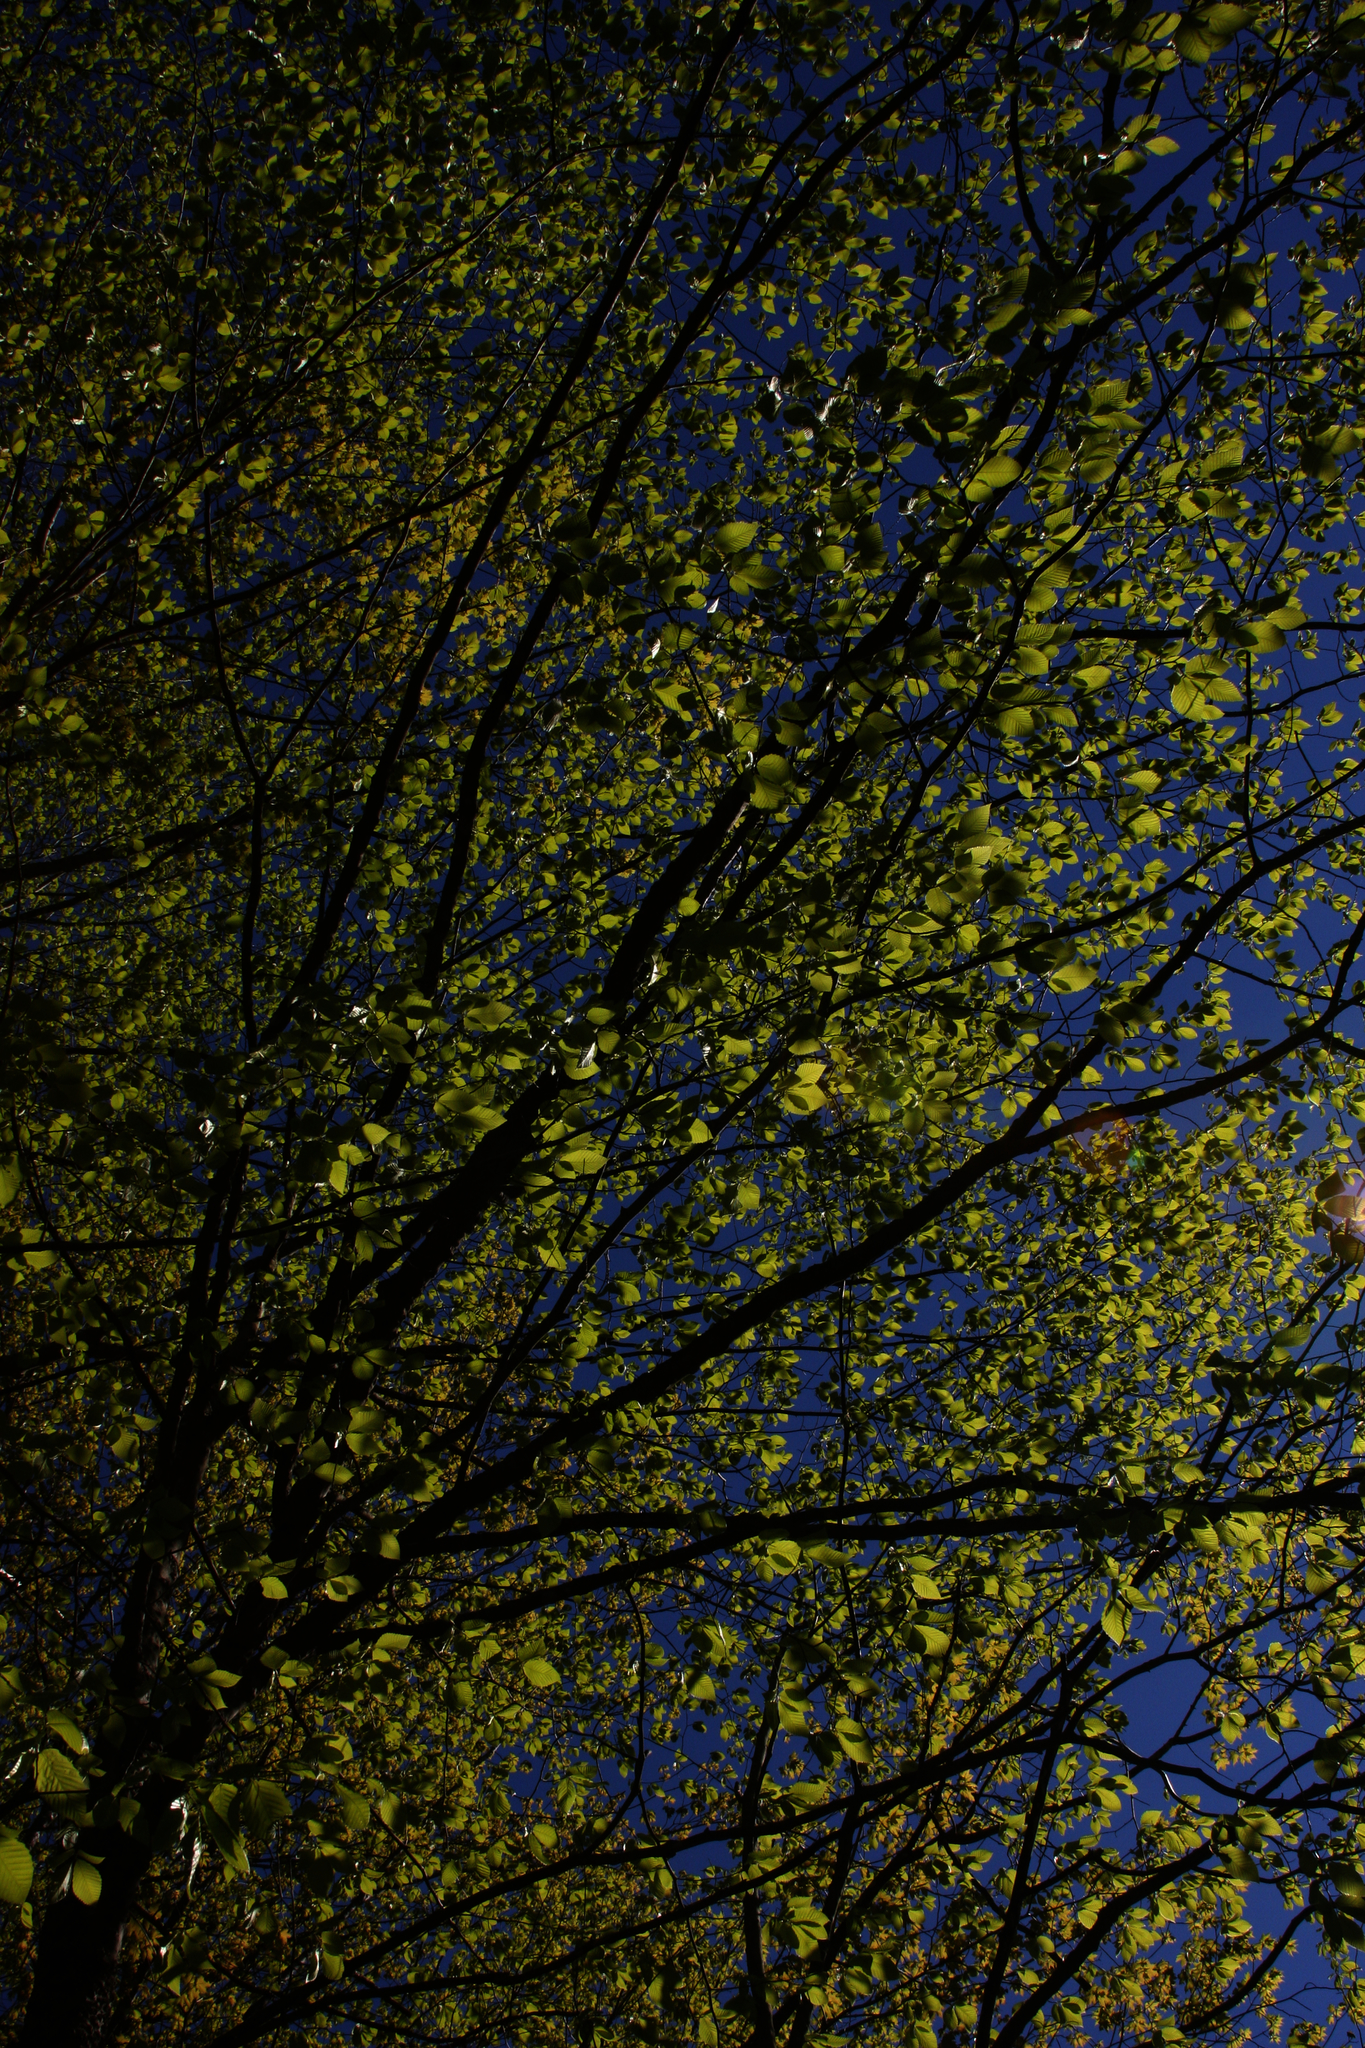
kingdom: Plantae
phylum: Tracheophyta
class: Magnoliopsida
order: Fagales
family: Fagaceae
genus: Fagus
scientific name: Fagus grandifolia
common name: American beech
